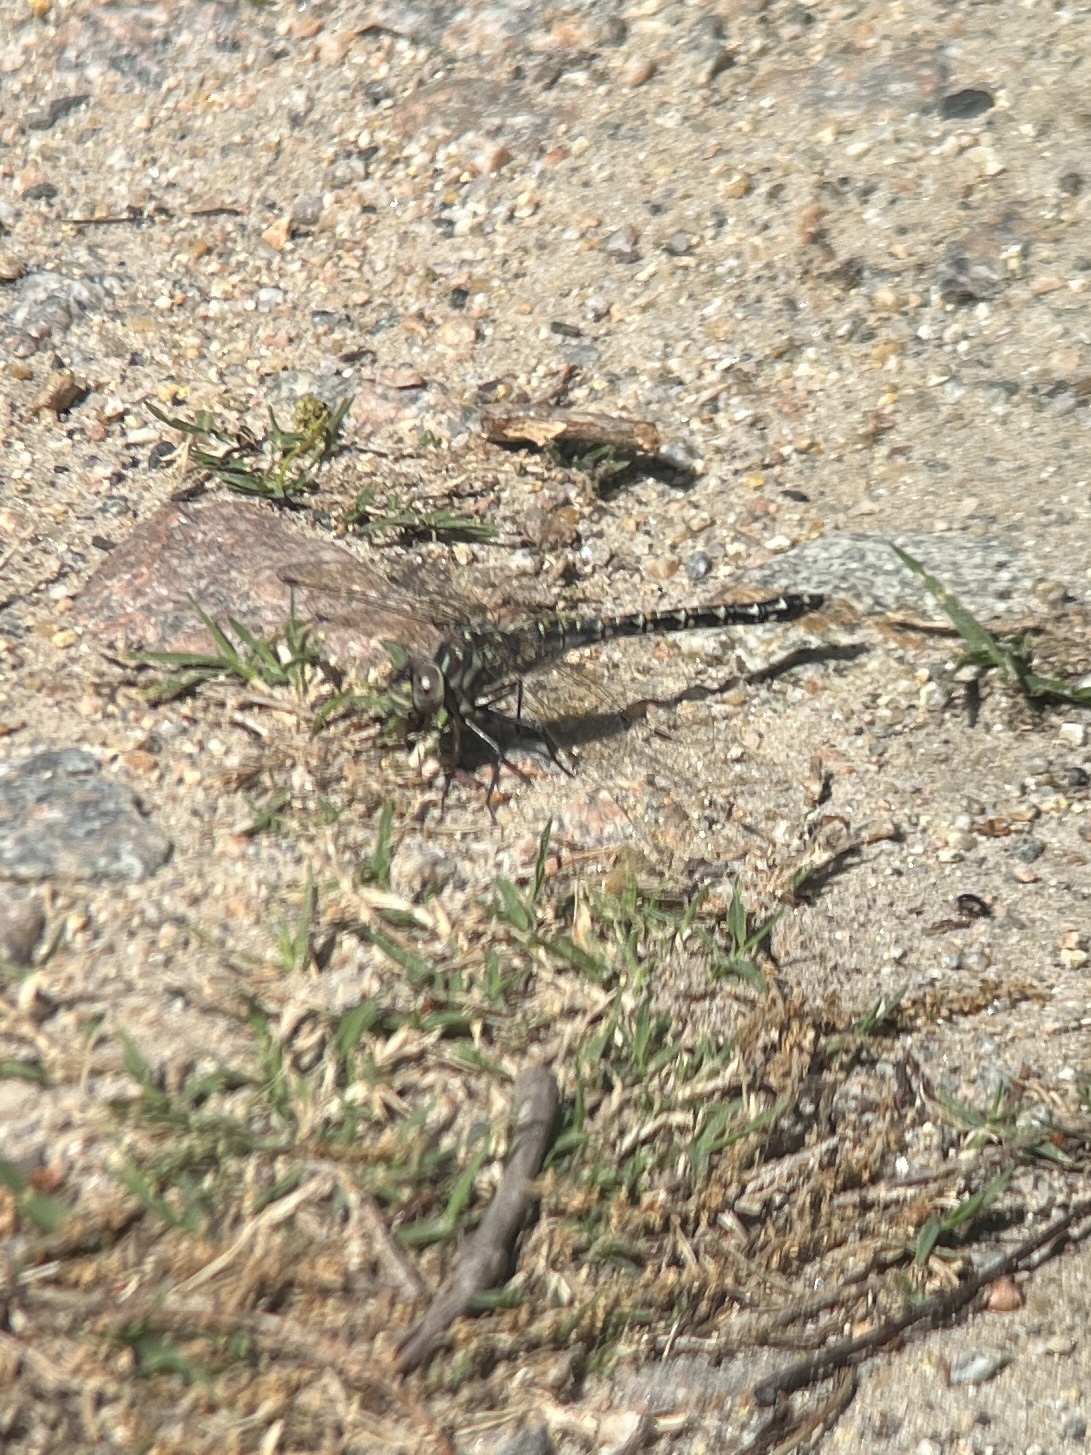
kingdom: Animalia
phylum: Arthropoda
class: Insecta
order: Odonata
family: Aeshnidae
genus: Gomphaeschna
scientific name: Gomphaeschna furcillata
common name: Harlequin darner
